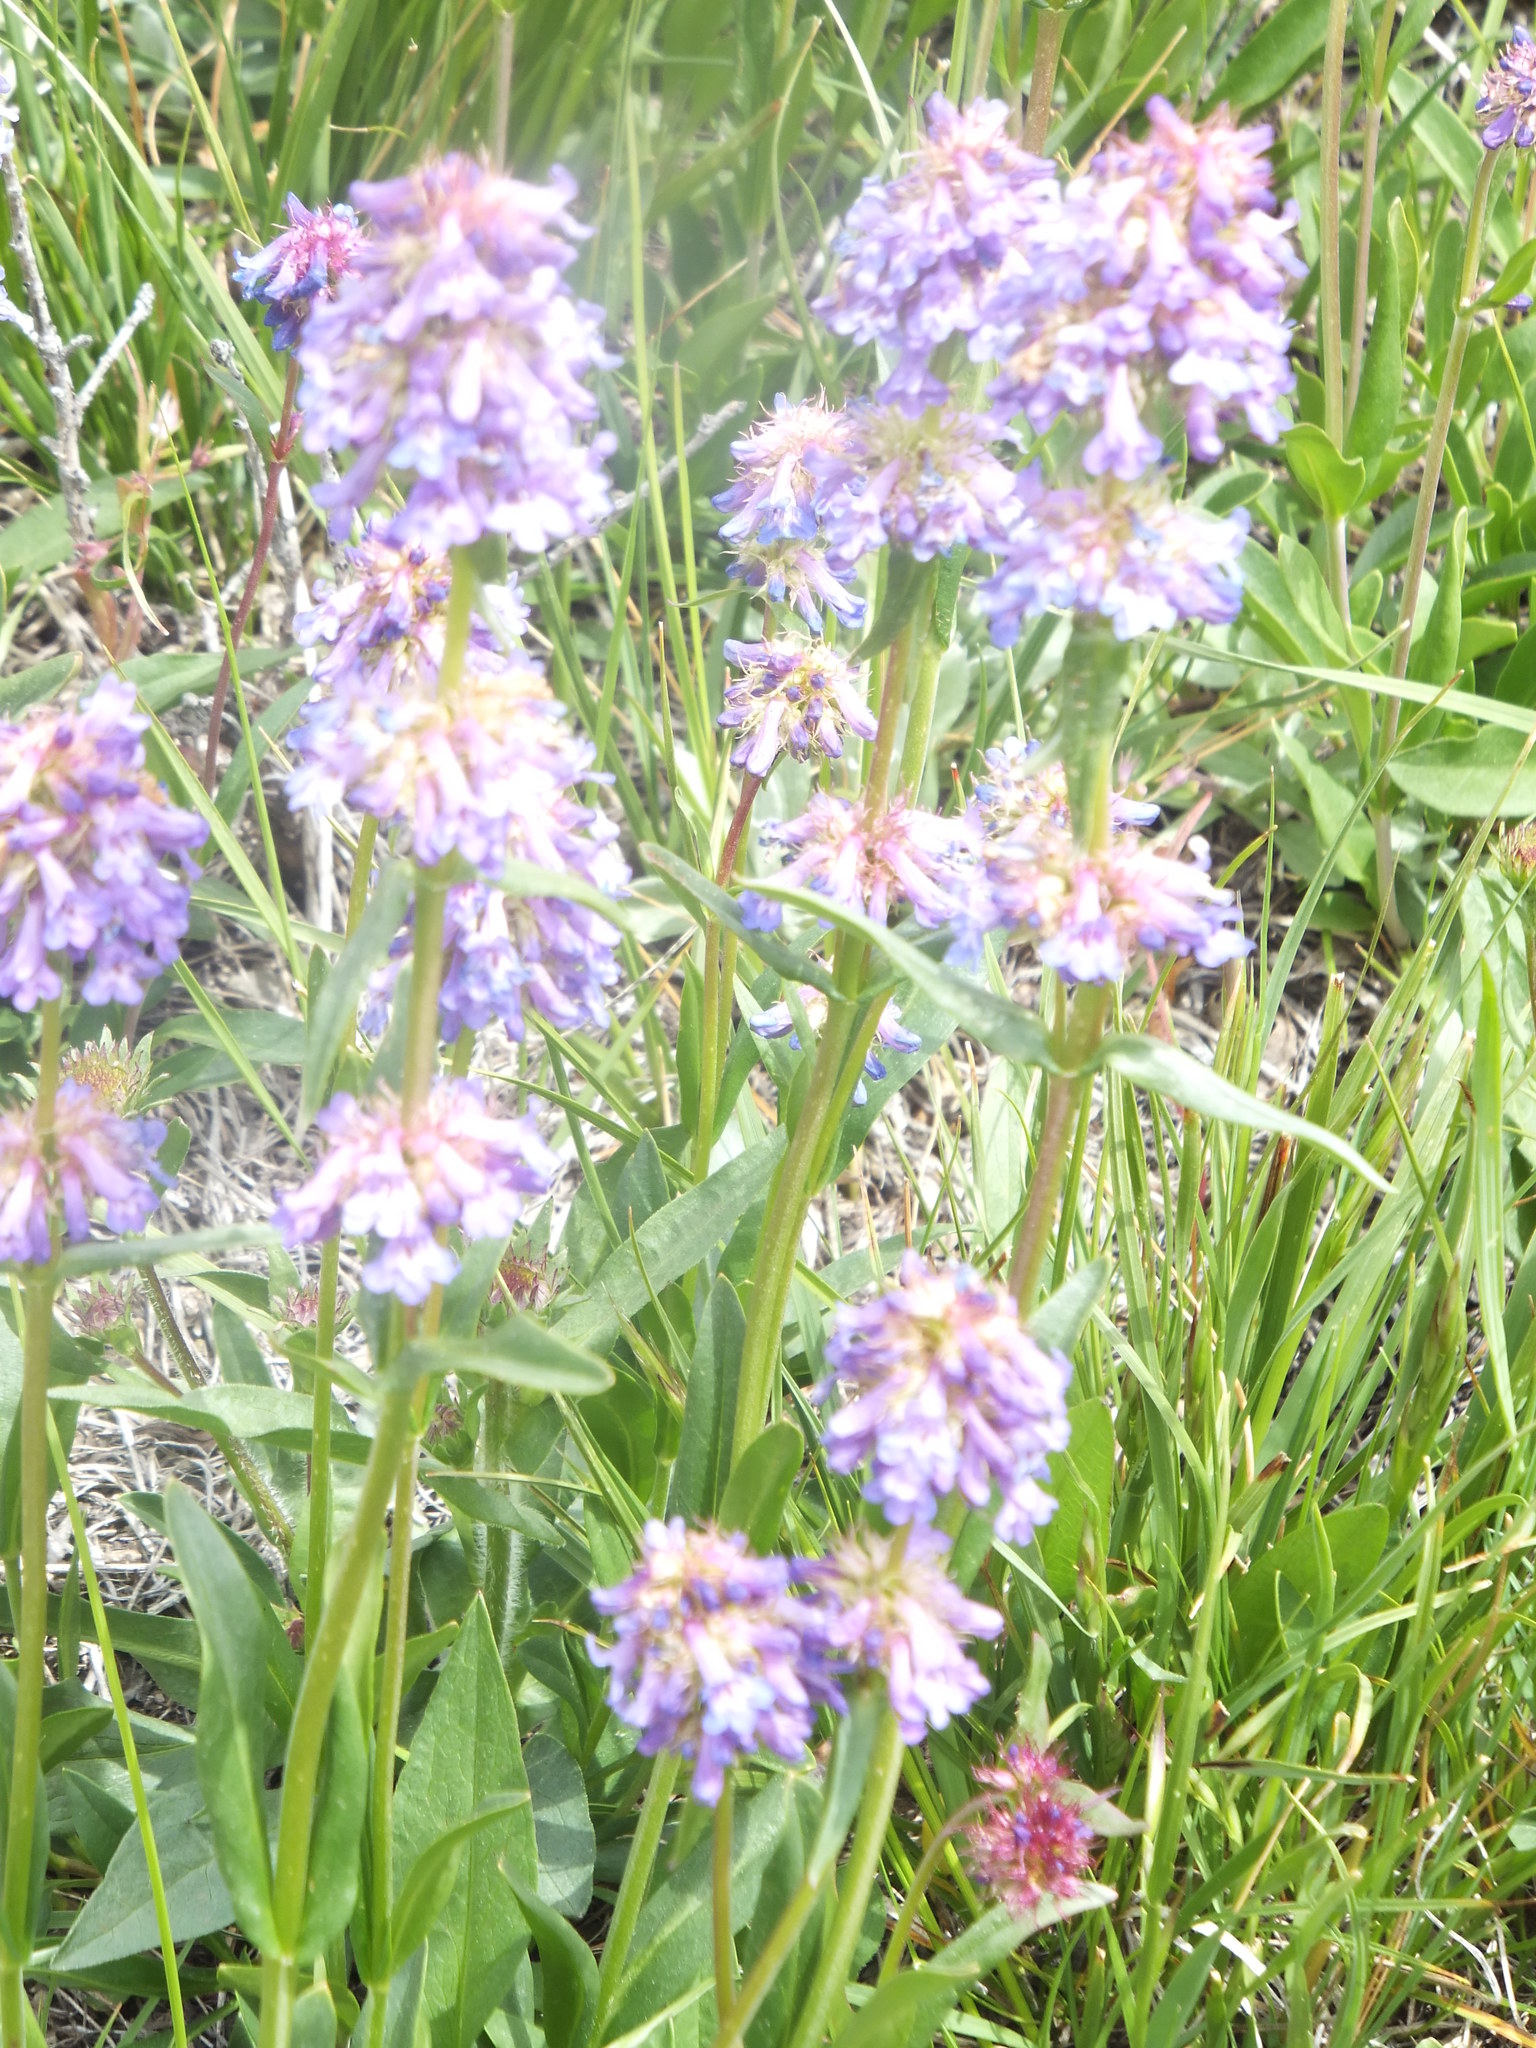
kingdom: Plantae
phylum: Tracheophyta
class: Magnoliopsida
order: Lamiales
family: Plantaginaceae
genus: Penstemon
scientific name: Penstemon procerus
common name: Small-flower penstemon
